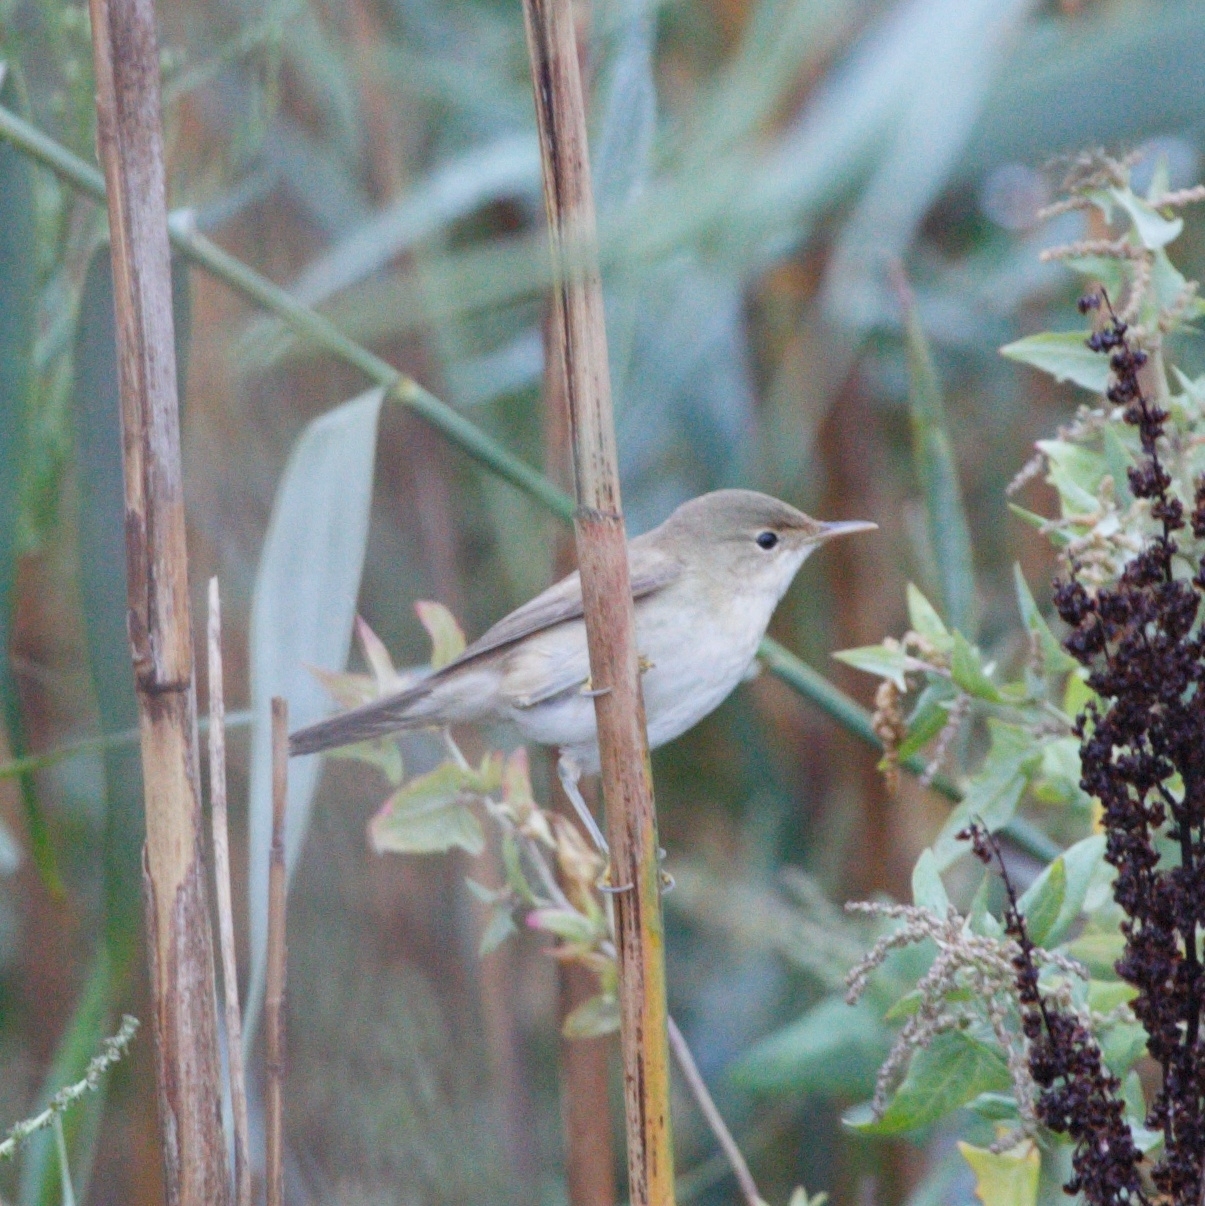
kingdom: Animalia
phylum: Chordata
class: Aves
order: Passeriformes
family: Acrocephalidae
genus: Acrocephalus
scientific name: Acrocephalus scirpaceus
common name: Eurasian reed warbler
